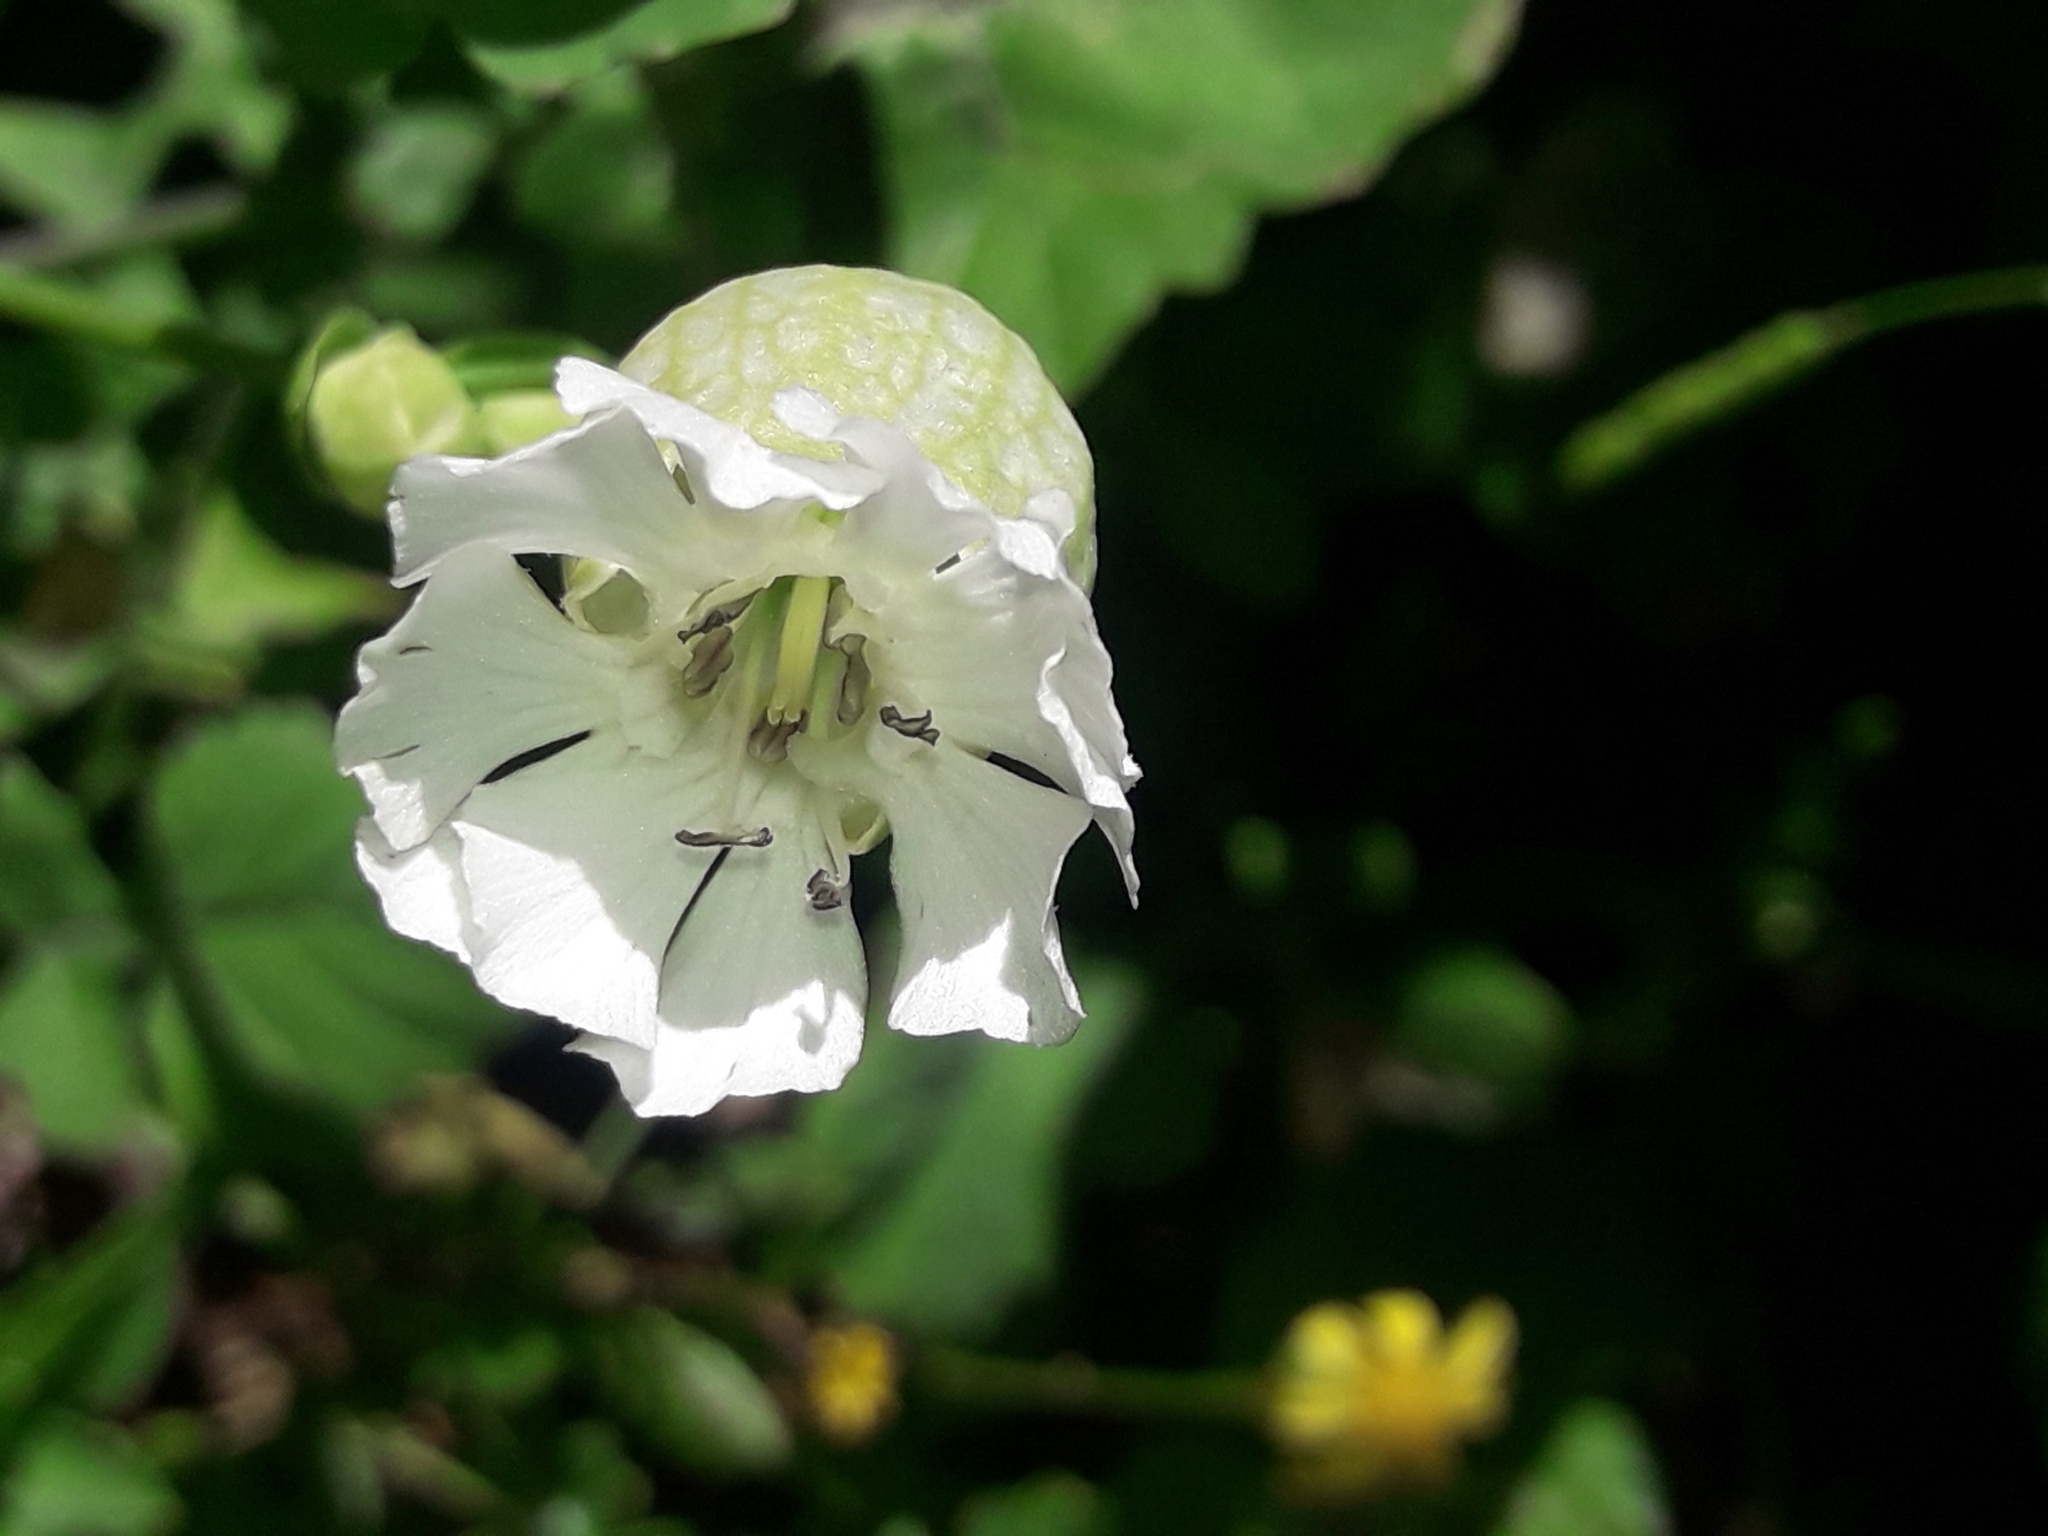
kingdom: Plantae
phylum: Tracheophyta
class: Magnoliopsida
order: Caryophyllales
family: Caryophyllaceae
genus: Silene
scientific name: Silene uniflora
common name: Sea campion
